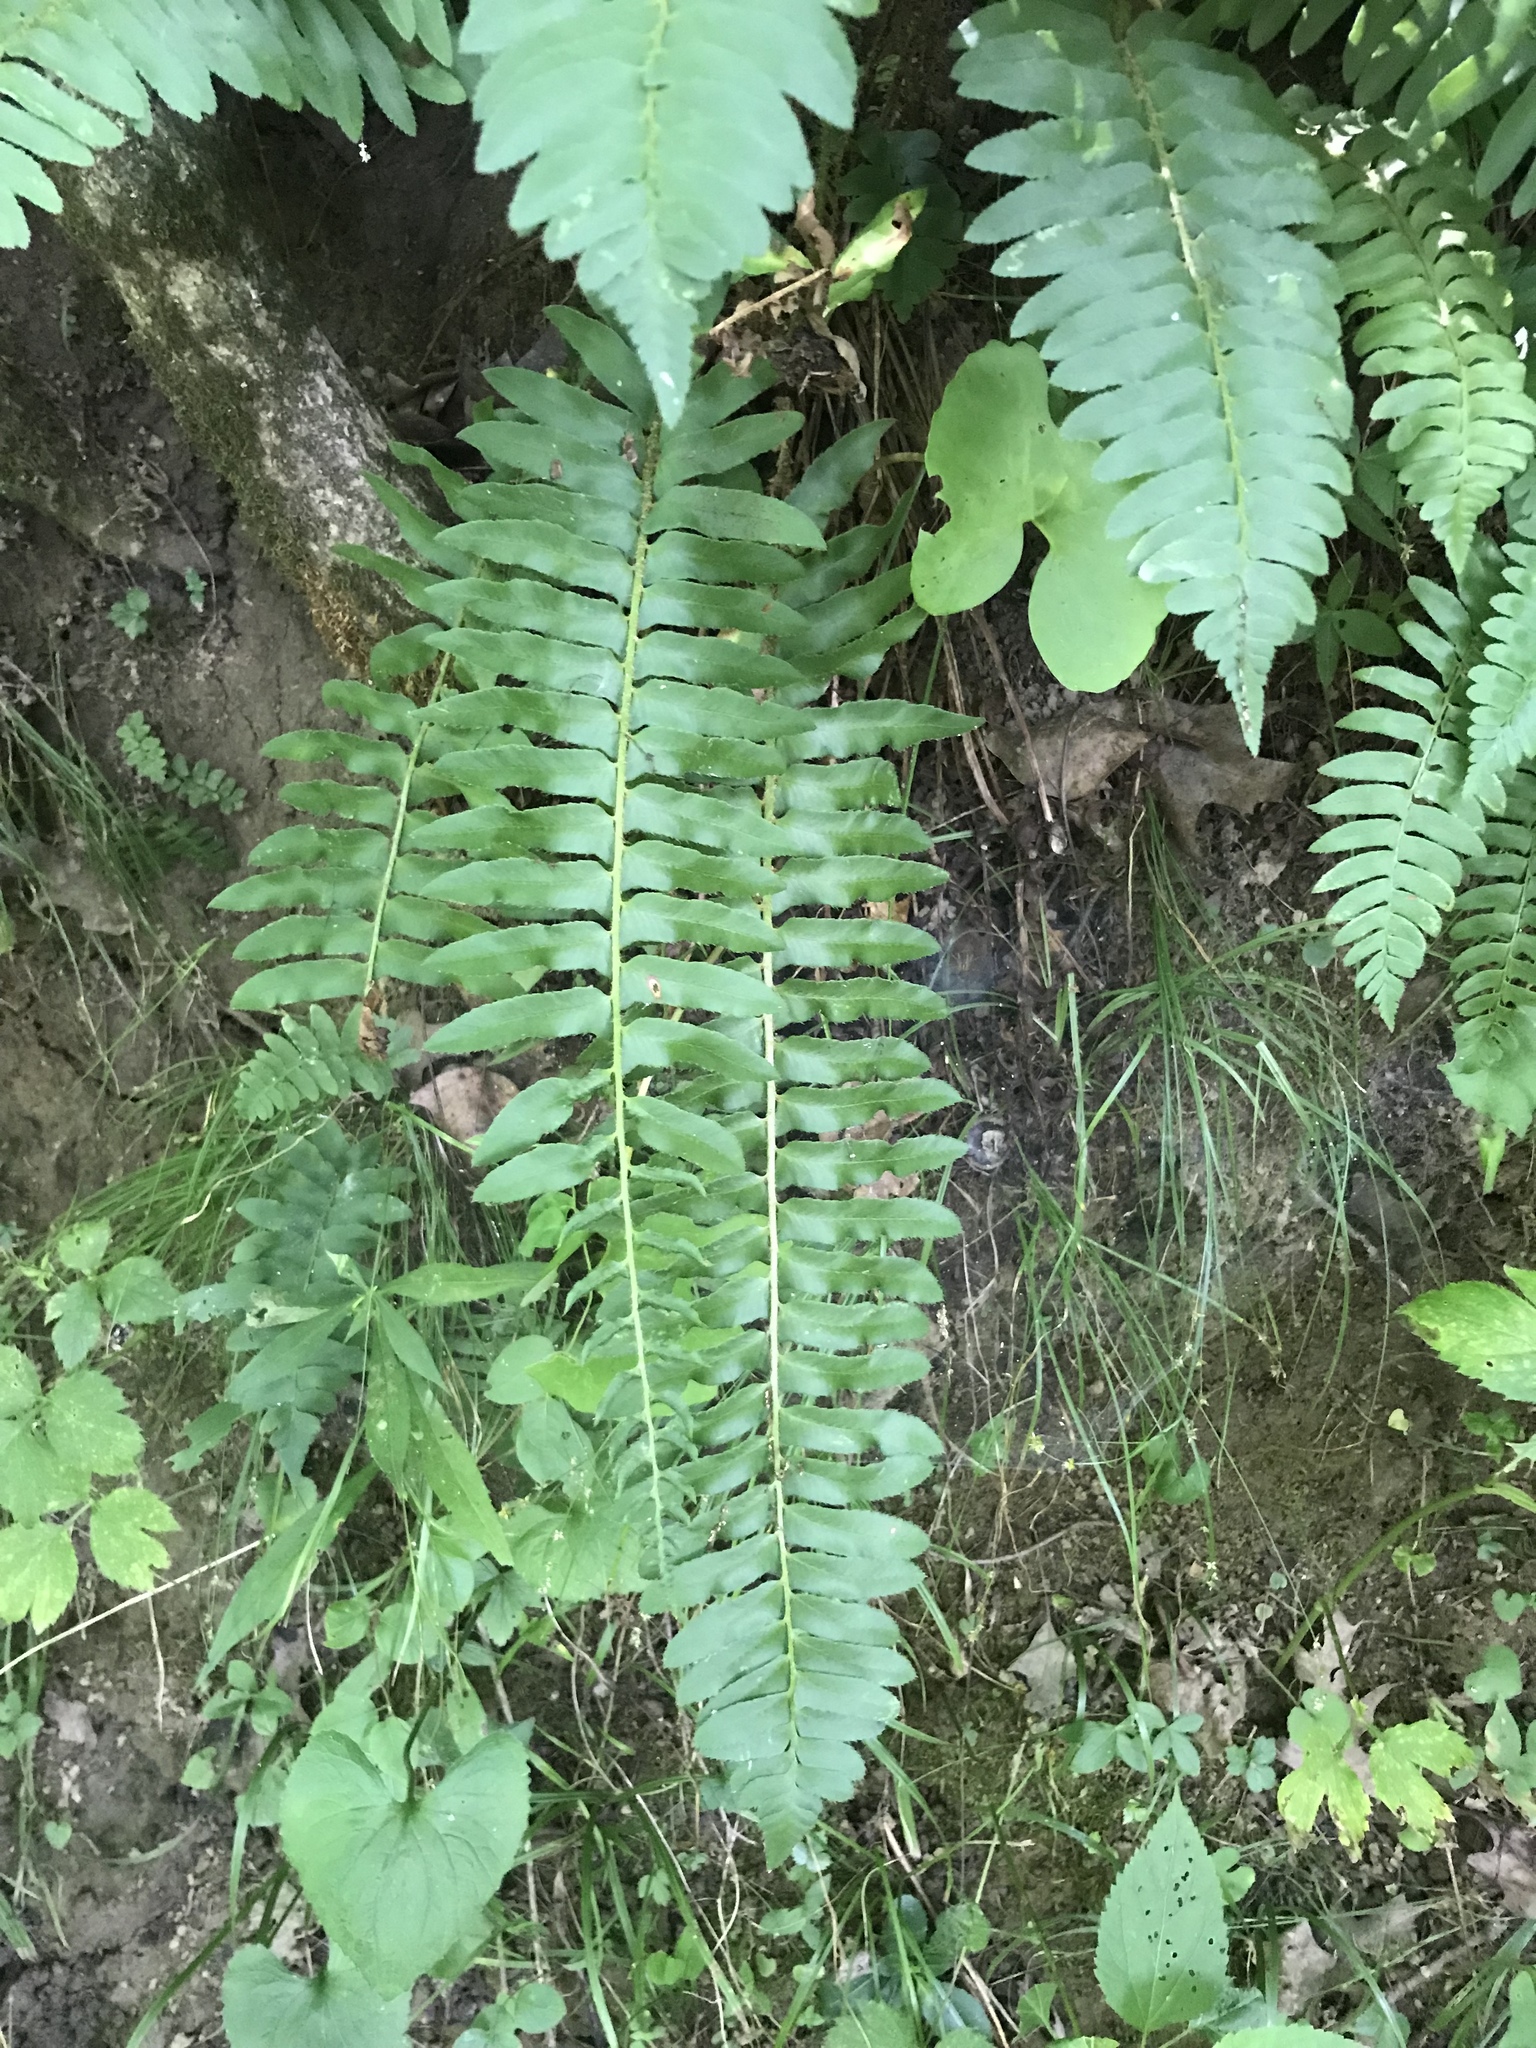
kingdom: Plantae
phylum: Tracheophyta
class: Polypodiopsida
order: Polypodiales
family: Dryopteridaceae
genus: Polystichum
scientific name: Polystichum acrostichoides
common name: Christmas fern
